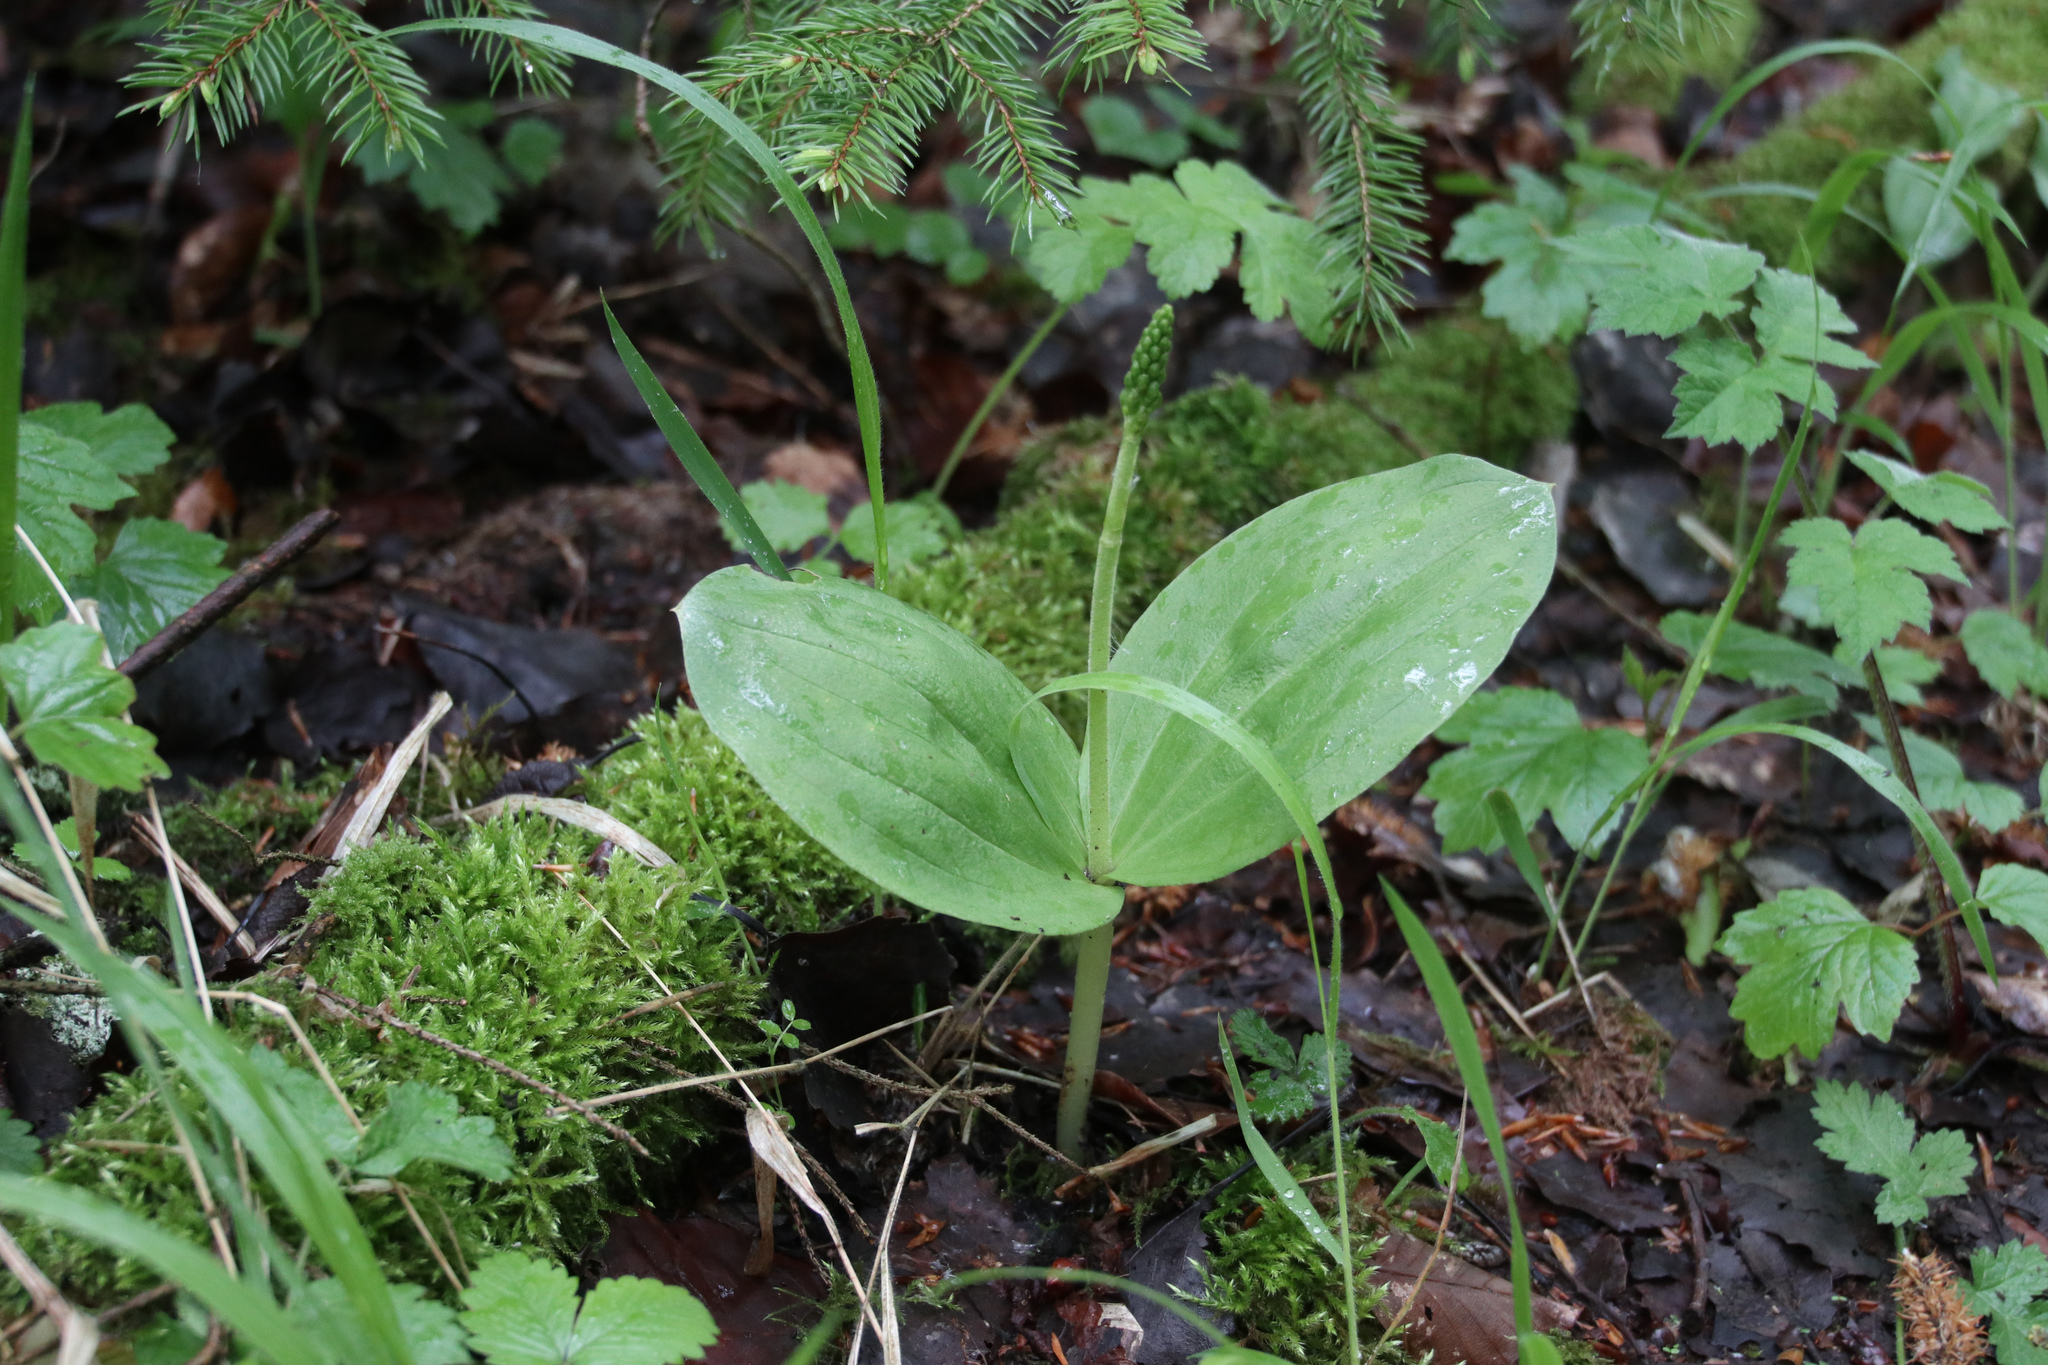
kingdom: Plantae
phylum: Tracheophyta
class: Liliopsida
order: Asparagales
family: Orchidaceae
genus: Neottia
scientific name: Neottia ovata
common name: Common twayblade
